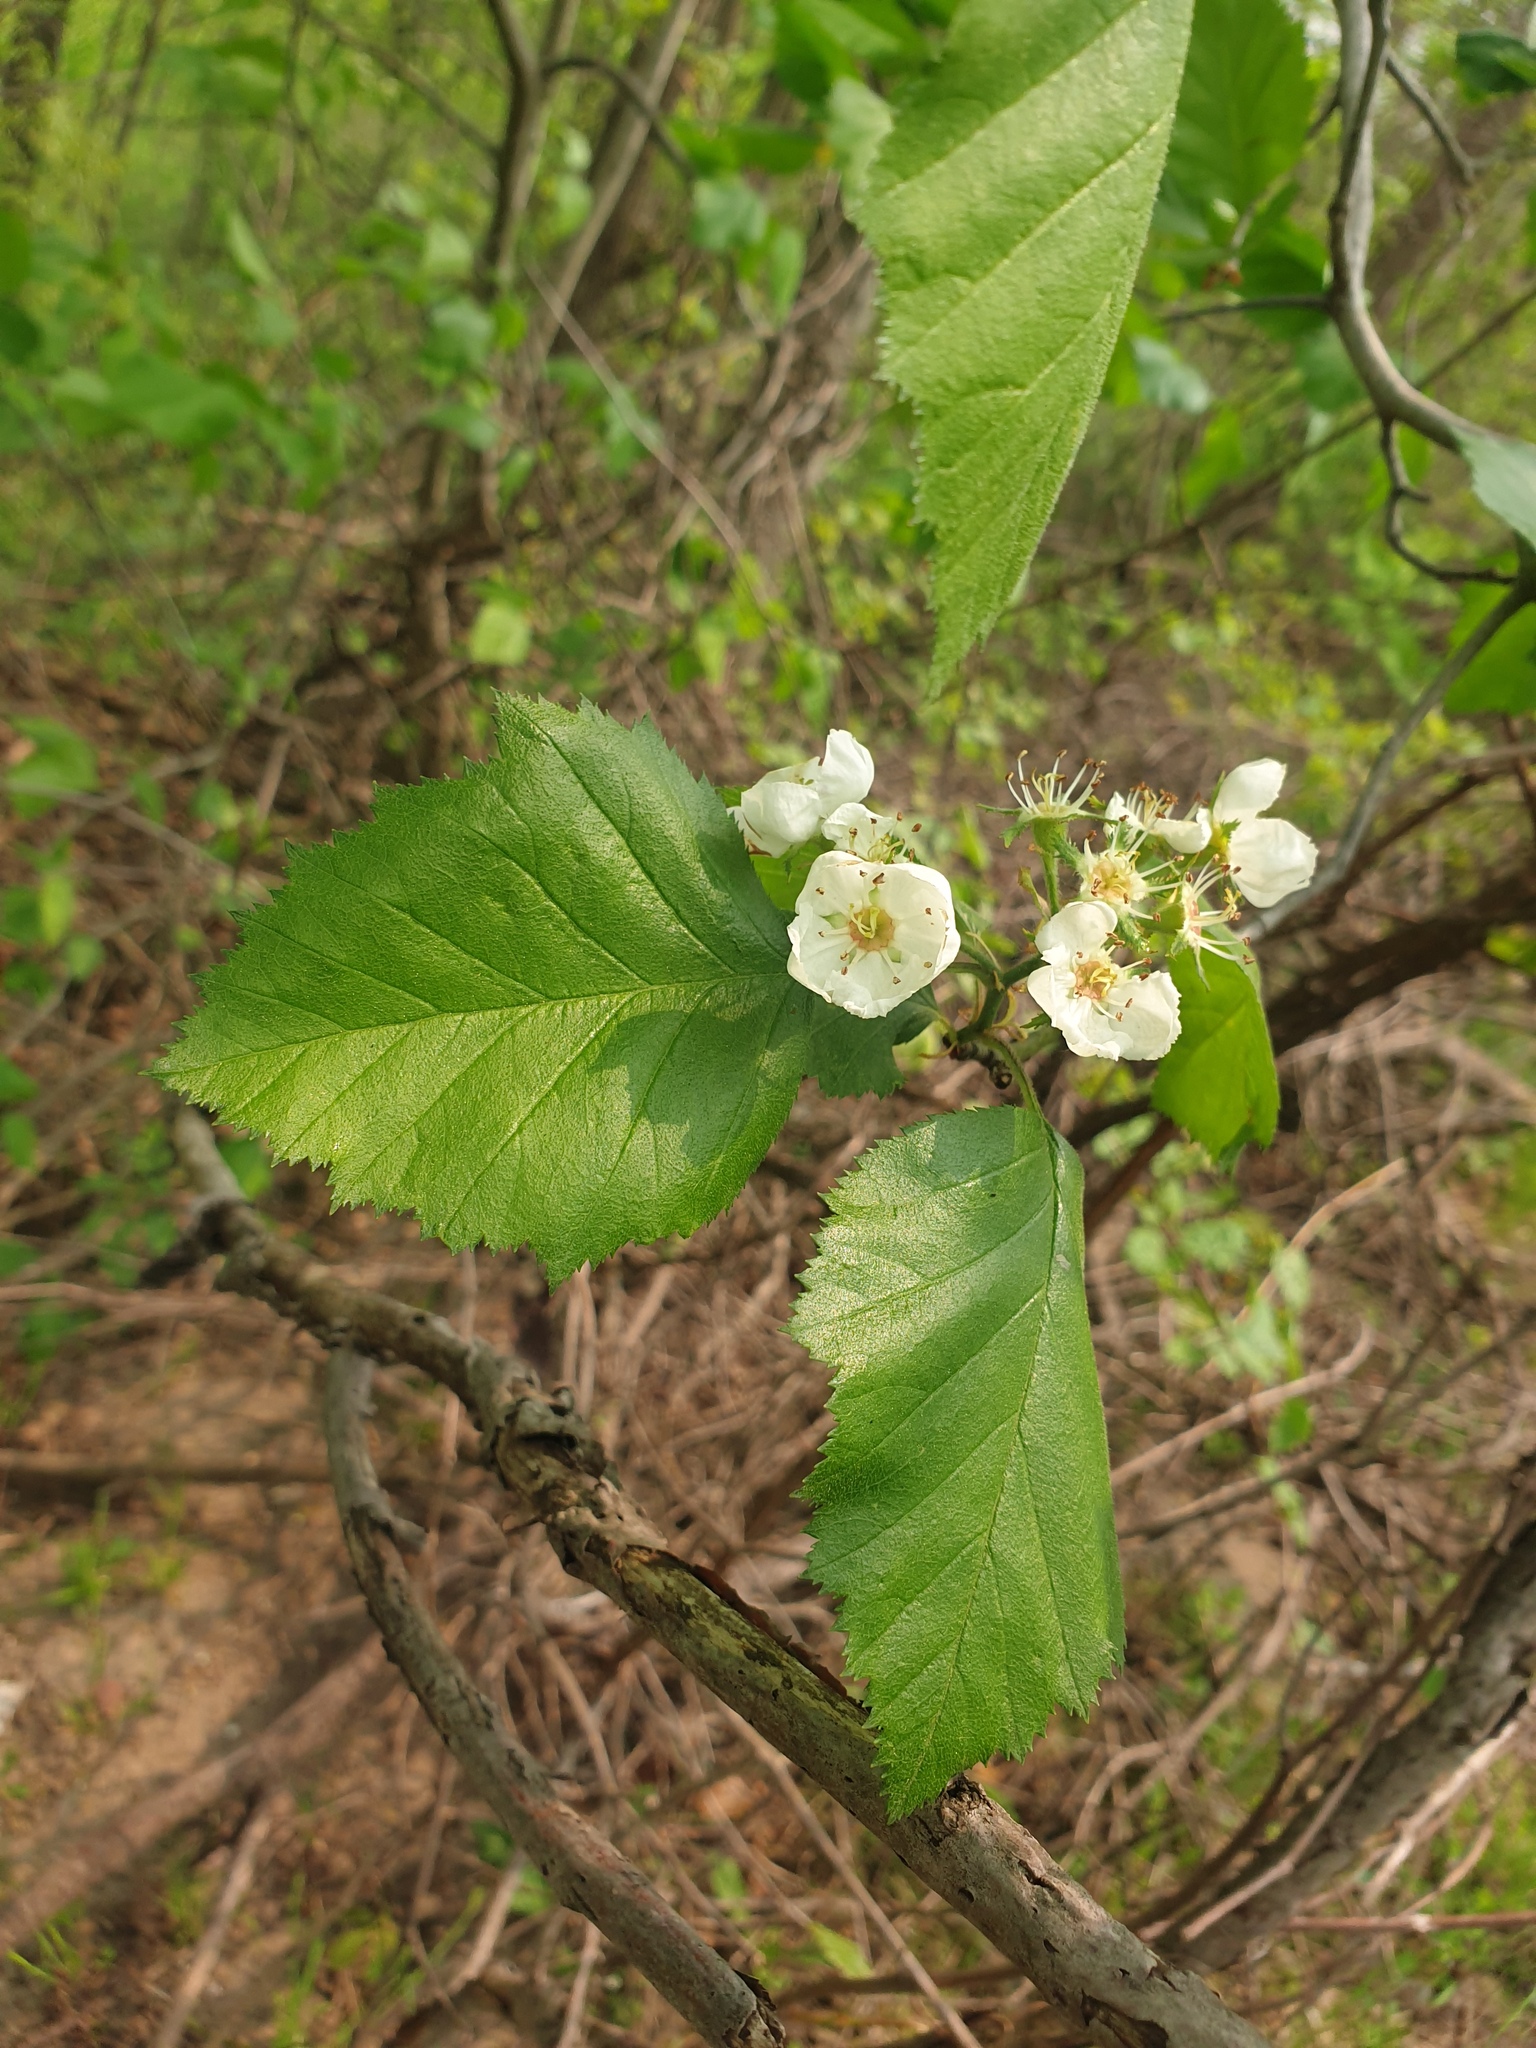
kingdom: Plantae
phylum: Tracheophyta
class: Magnoliopsida
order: Rosales
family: Rosaceae
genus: Crataegus
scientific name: Crataegus pennsylvanica
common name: Pennsylvania hawthorn
